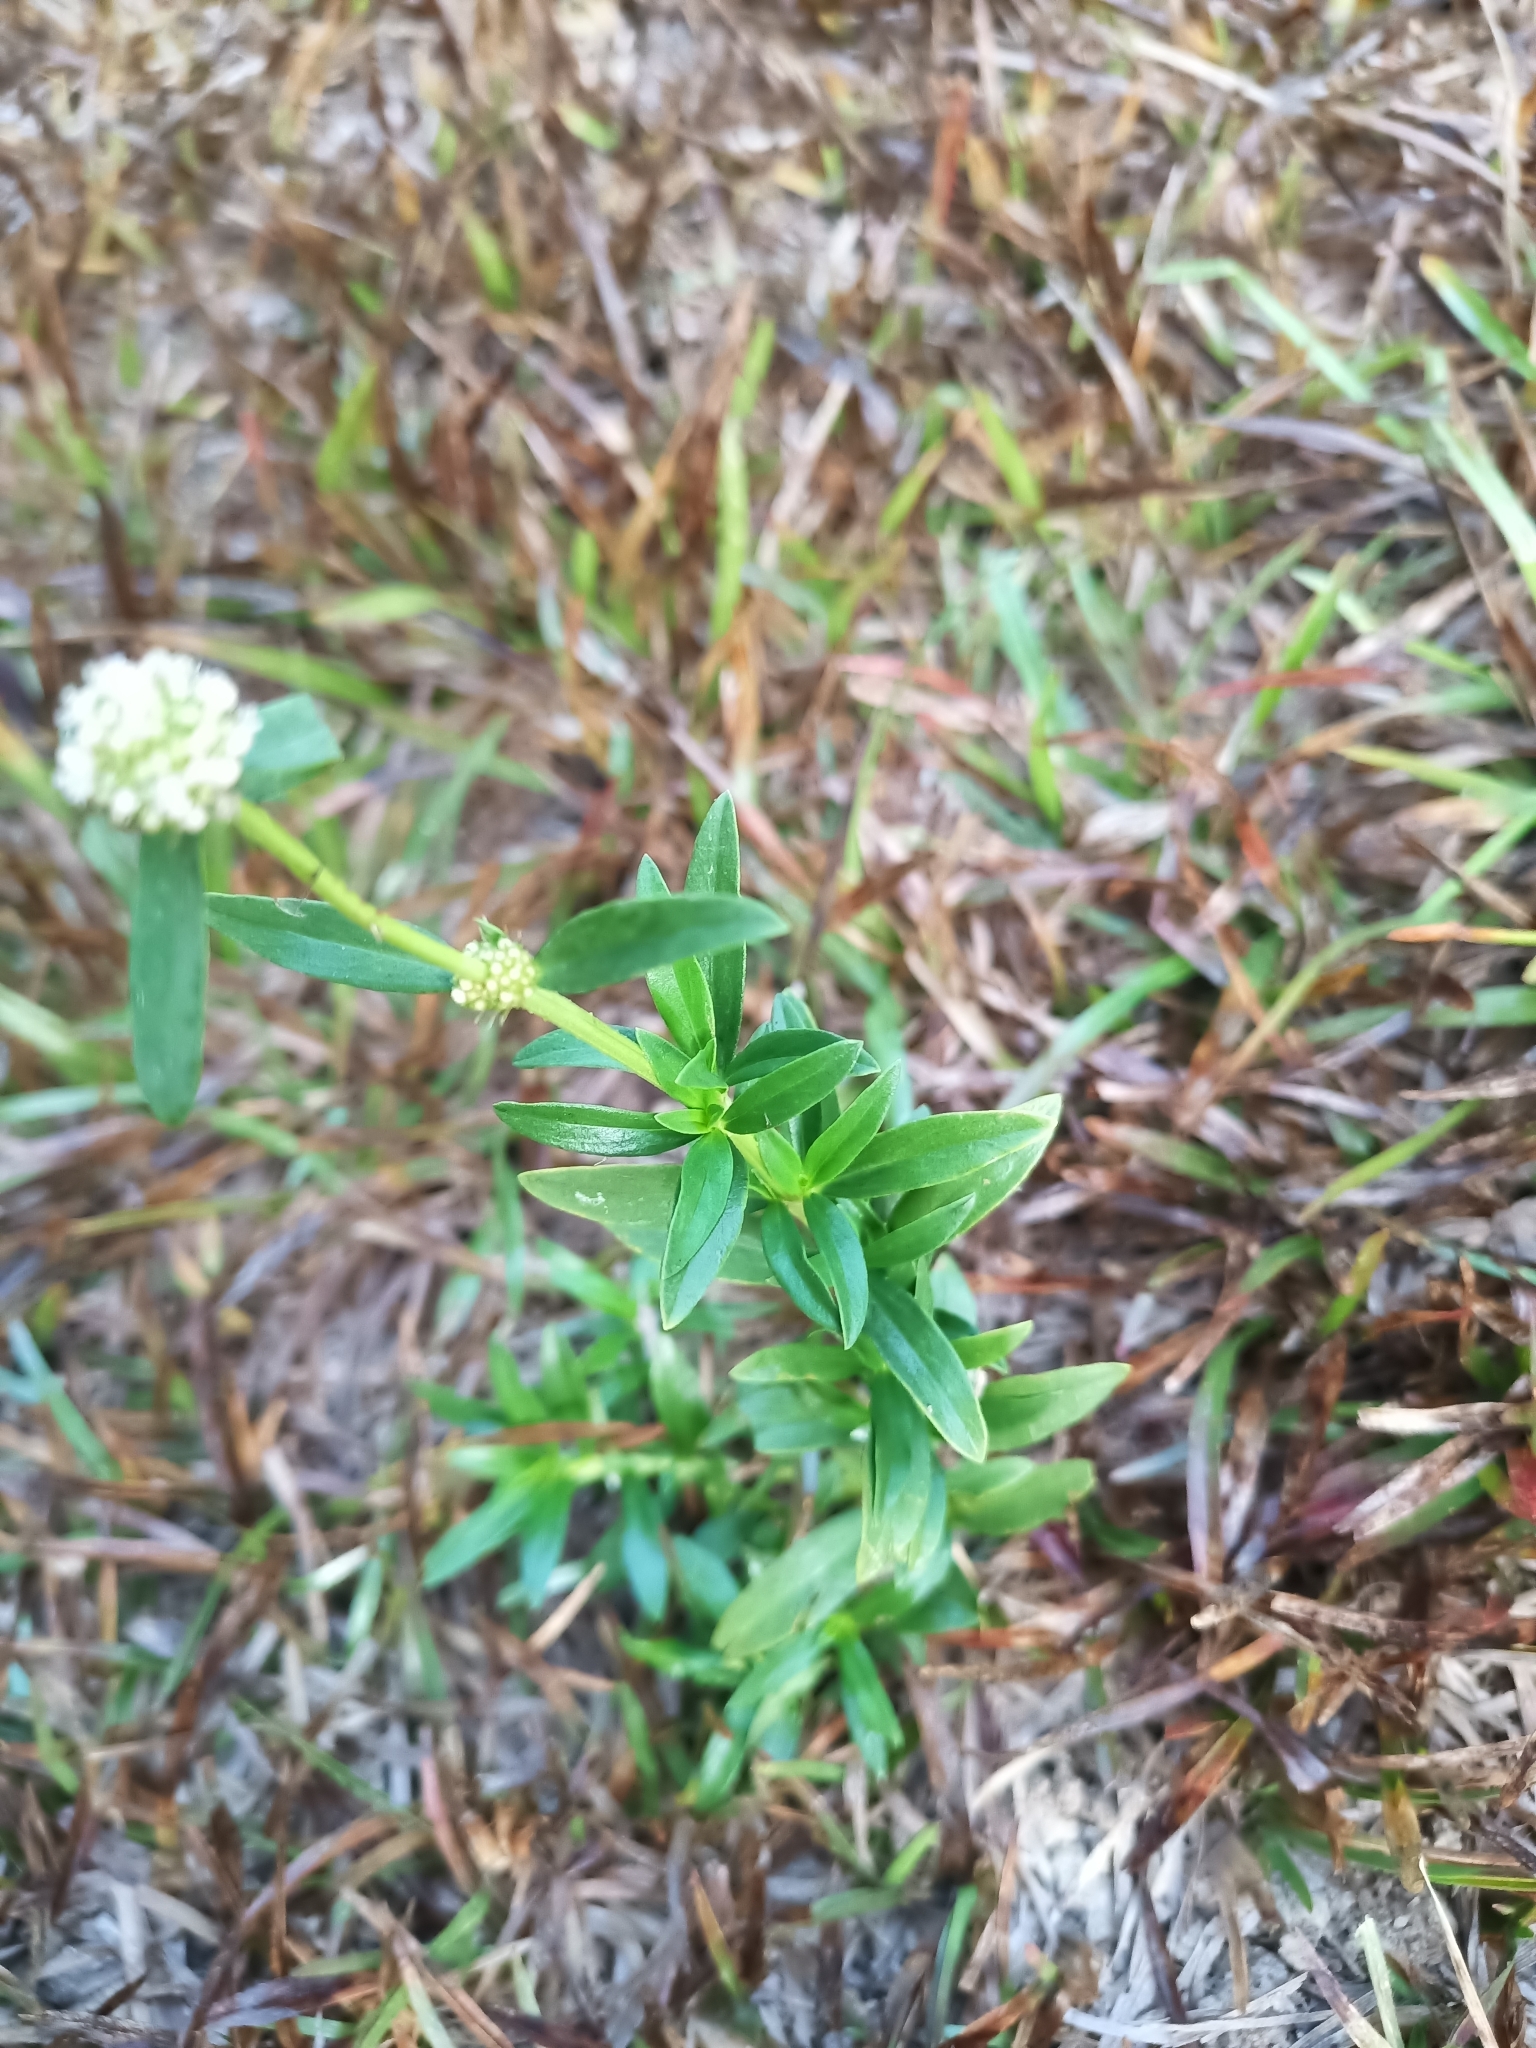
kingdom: Plantae
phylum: Tracheophyta
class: Magnoliopsida
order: Gentianales
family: Rubiaceae
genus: Spermacoce
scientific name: Spermacoce verticillata
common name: Shrubby false buttonweed
